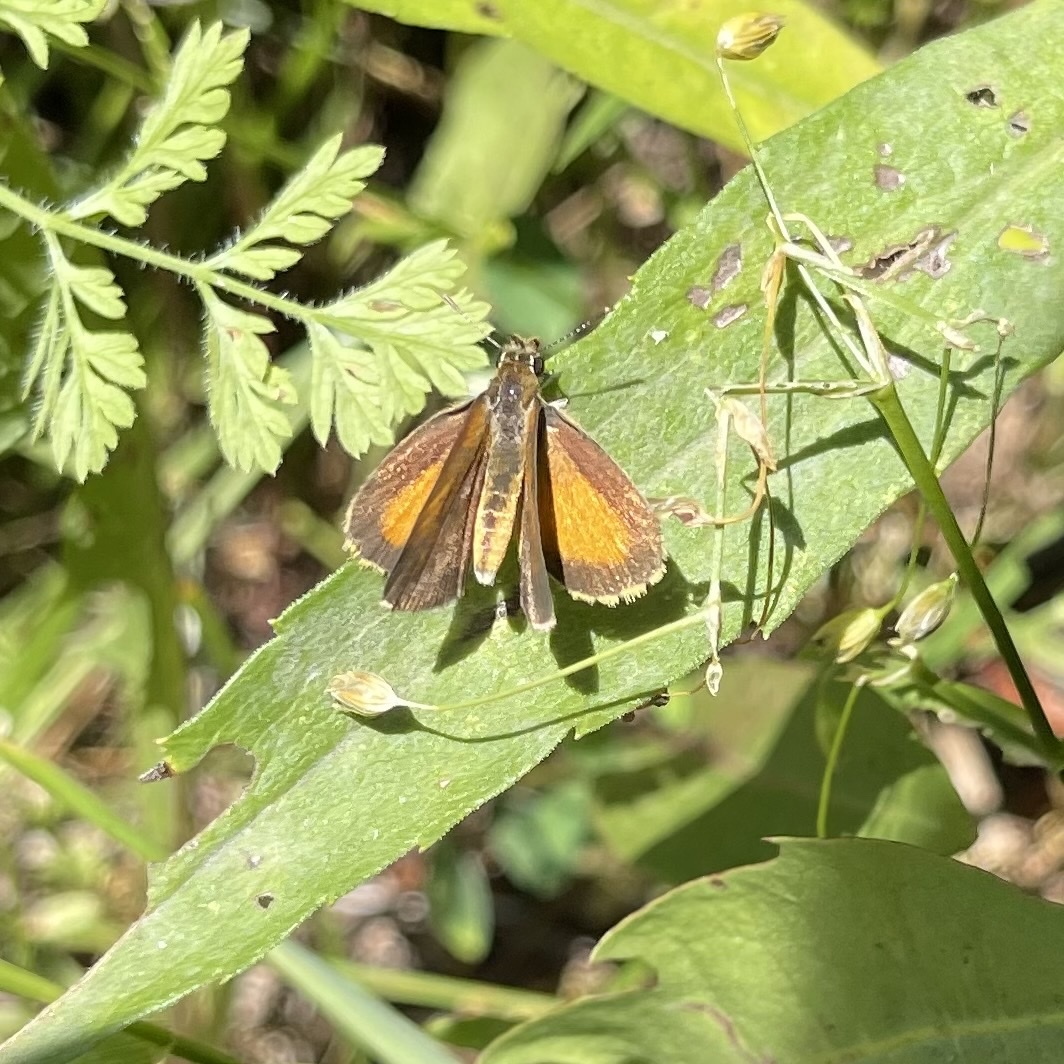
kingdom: Animalia
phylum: Arthropoda
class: Insecta
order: Lepidoptera
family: Hesperiidae
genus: Ancyloxypha
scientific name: Ancyloxypha numitor
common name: Least skipper
